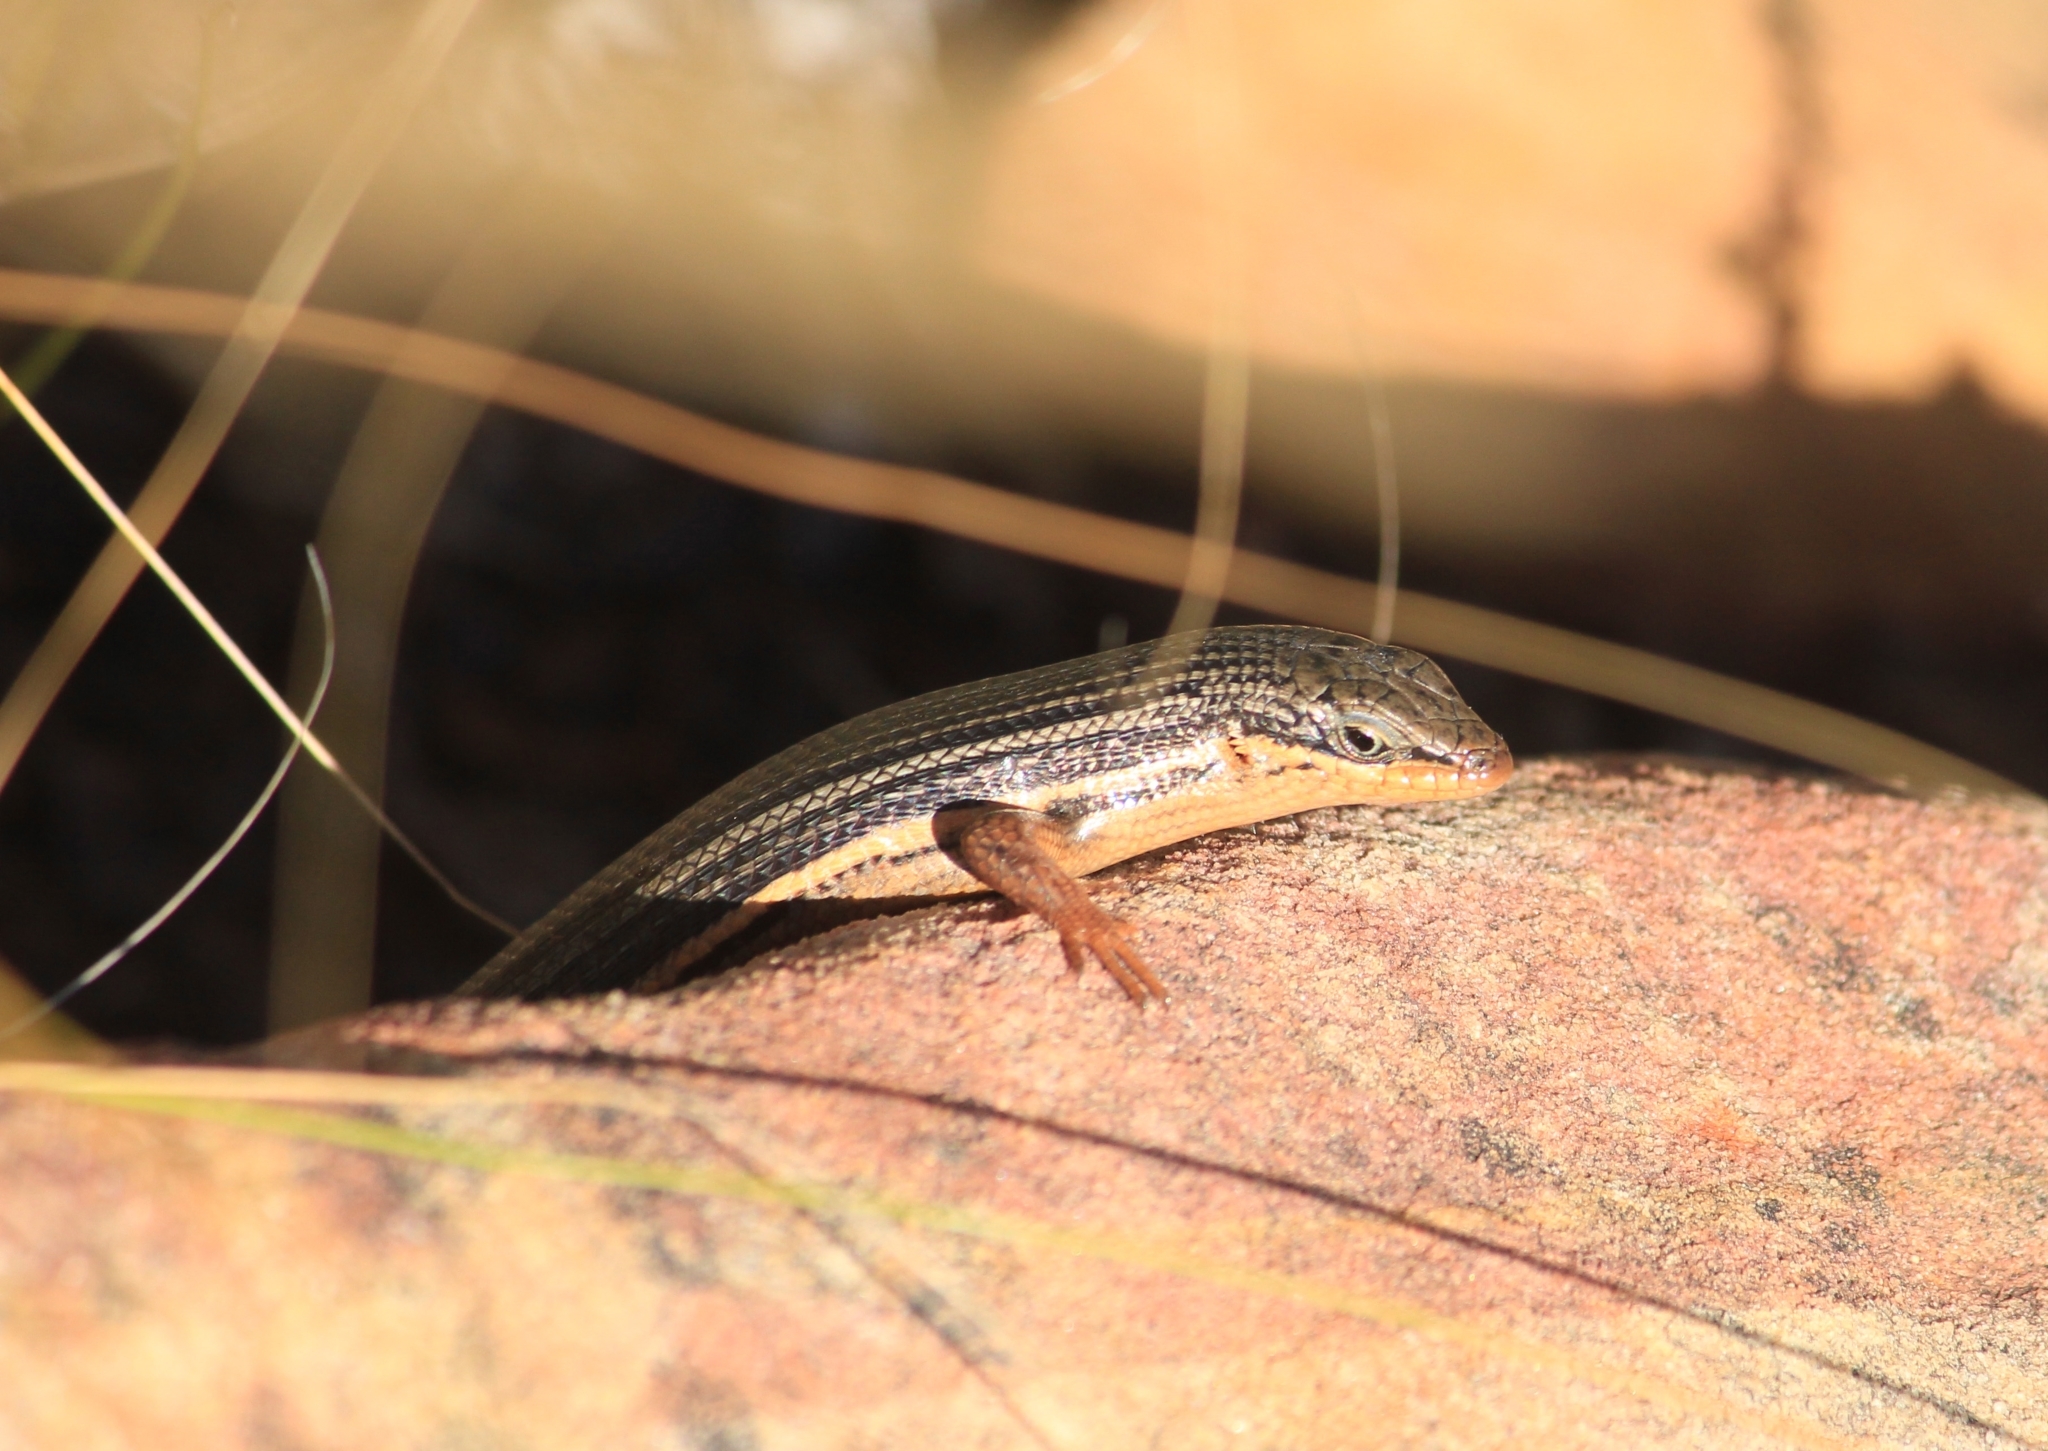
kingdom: Animalia
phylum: Chordata
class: Squamata
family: Scincidae
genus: Trachylepis
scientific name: Trachylepis homalocephala
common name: Red-sided skink
